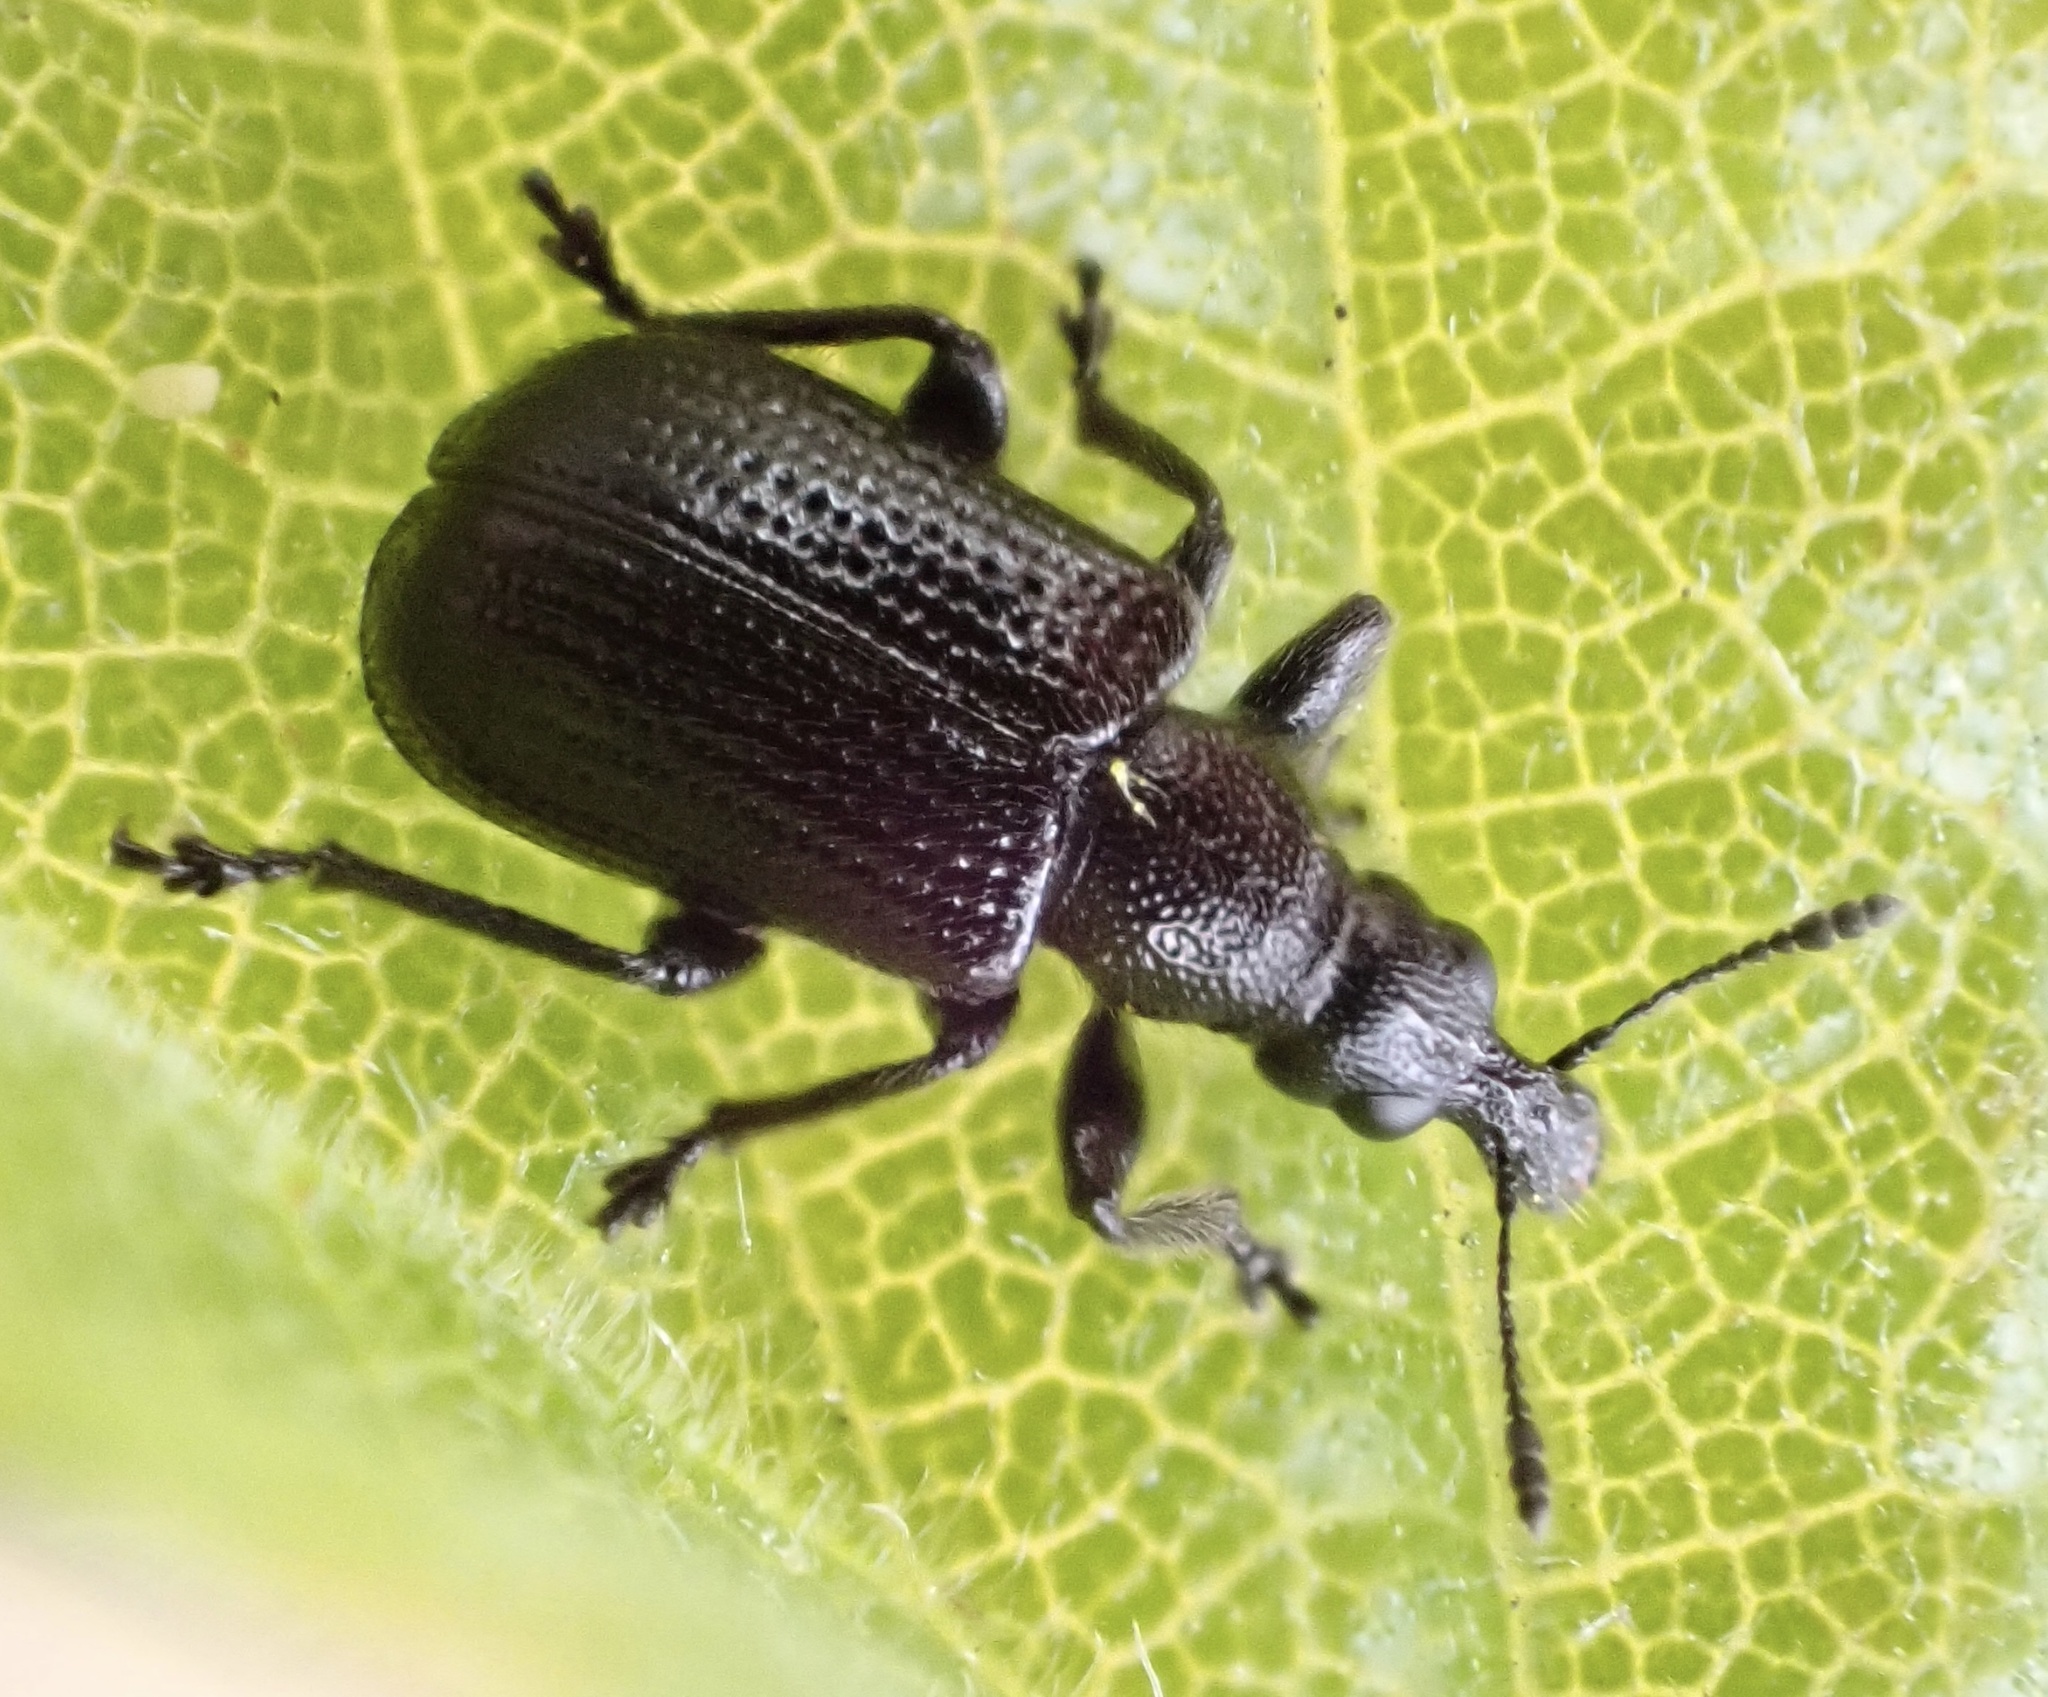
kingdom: Animalia
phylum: Arthropoda
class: Insecta
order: Coleoptera
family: Attelabidae
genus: Deporaus
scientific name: Deporaus betulae
